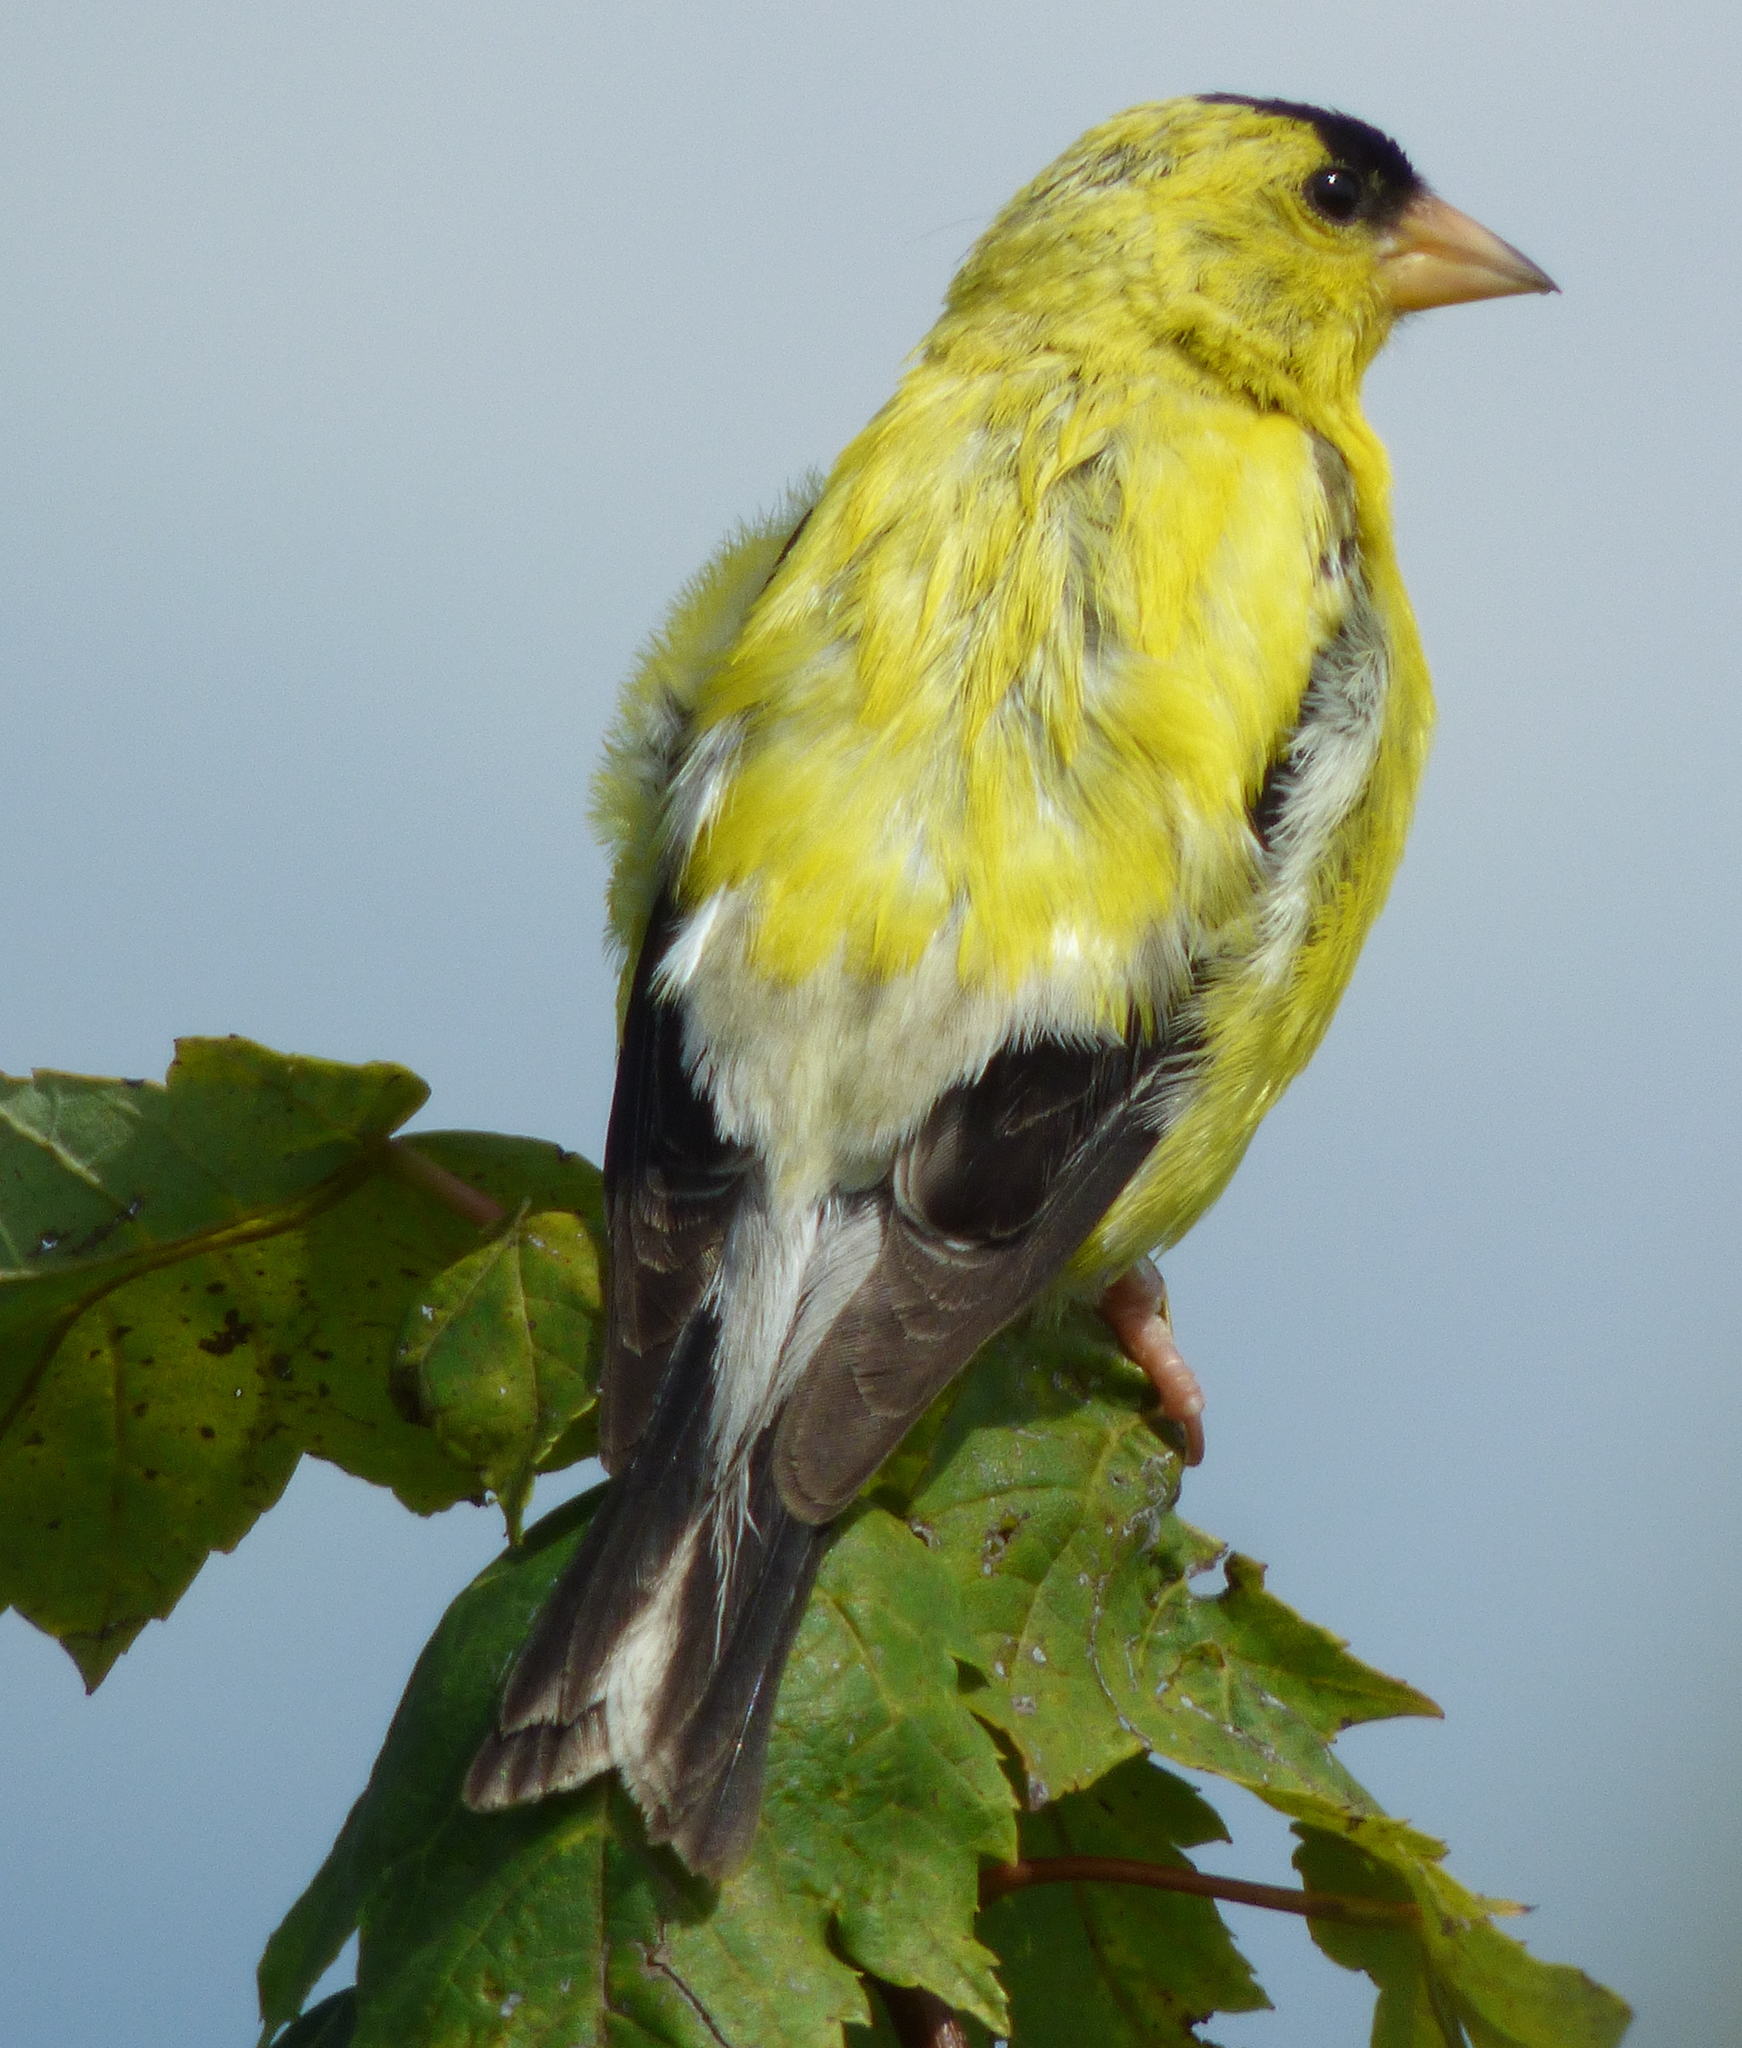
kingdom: Animalia
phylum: Chordata
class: Aves
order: Passeriformes
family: Fringillidae
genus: Spinus
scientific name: Spinus tristis
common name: American goldfinch
